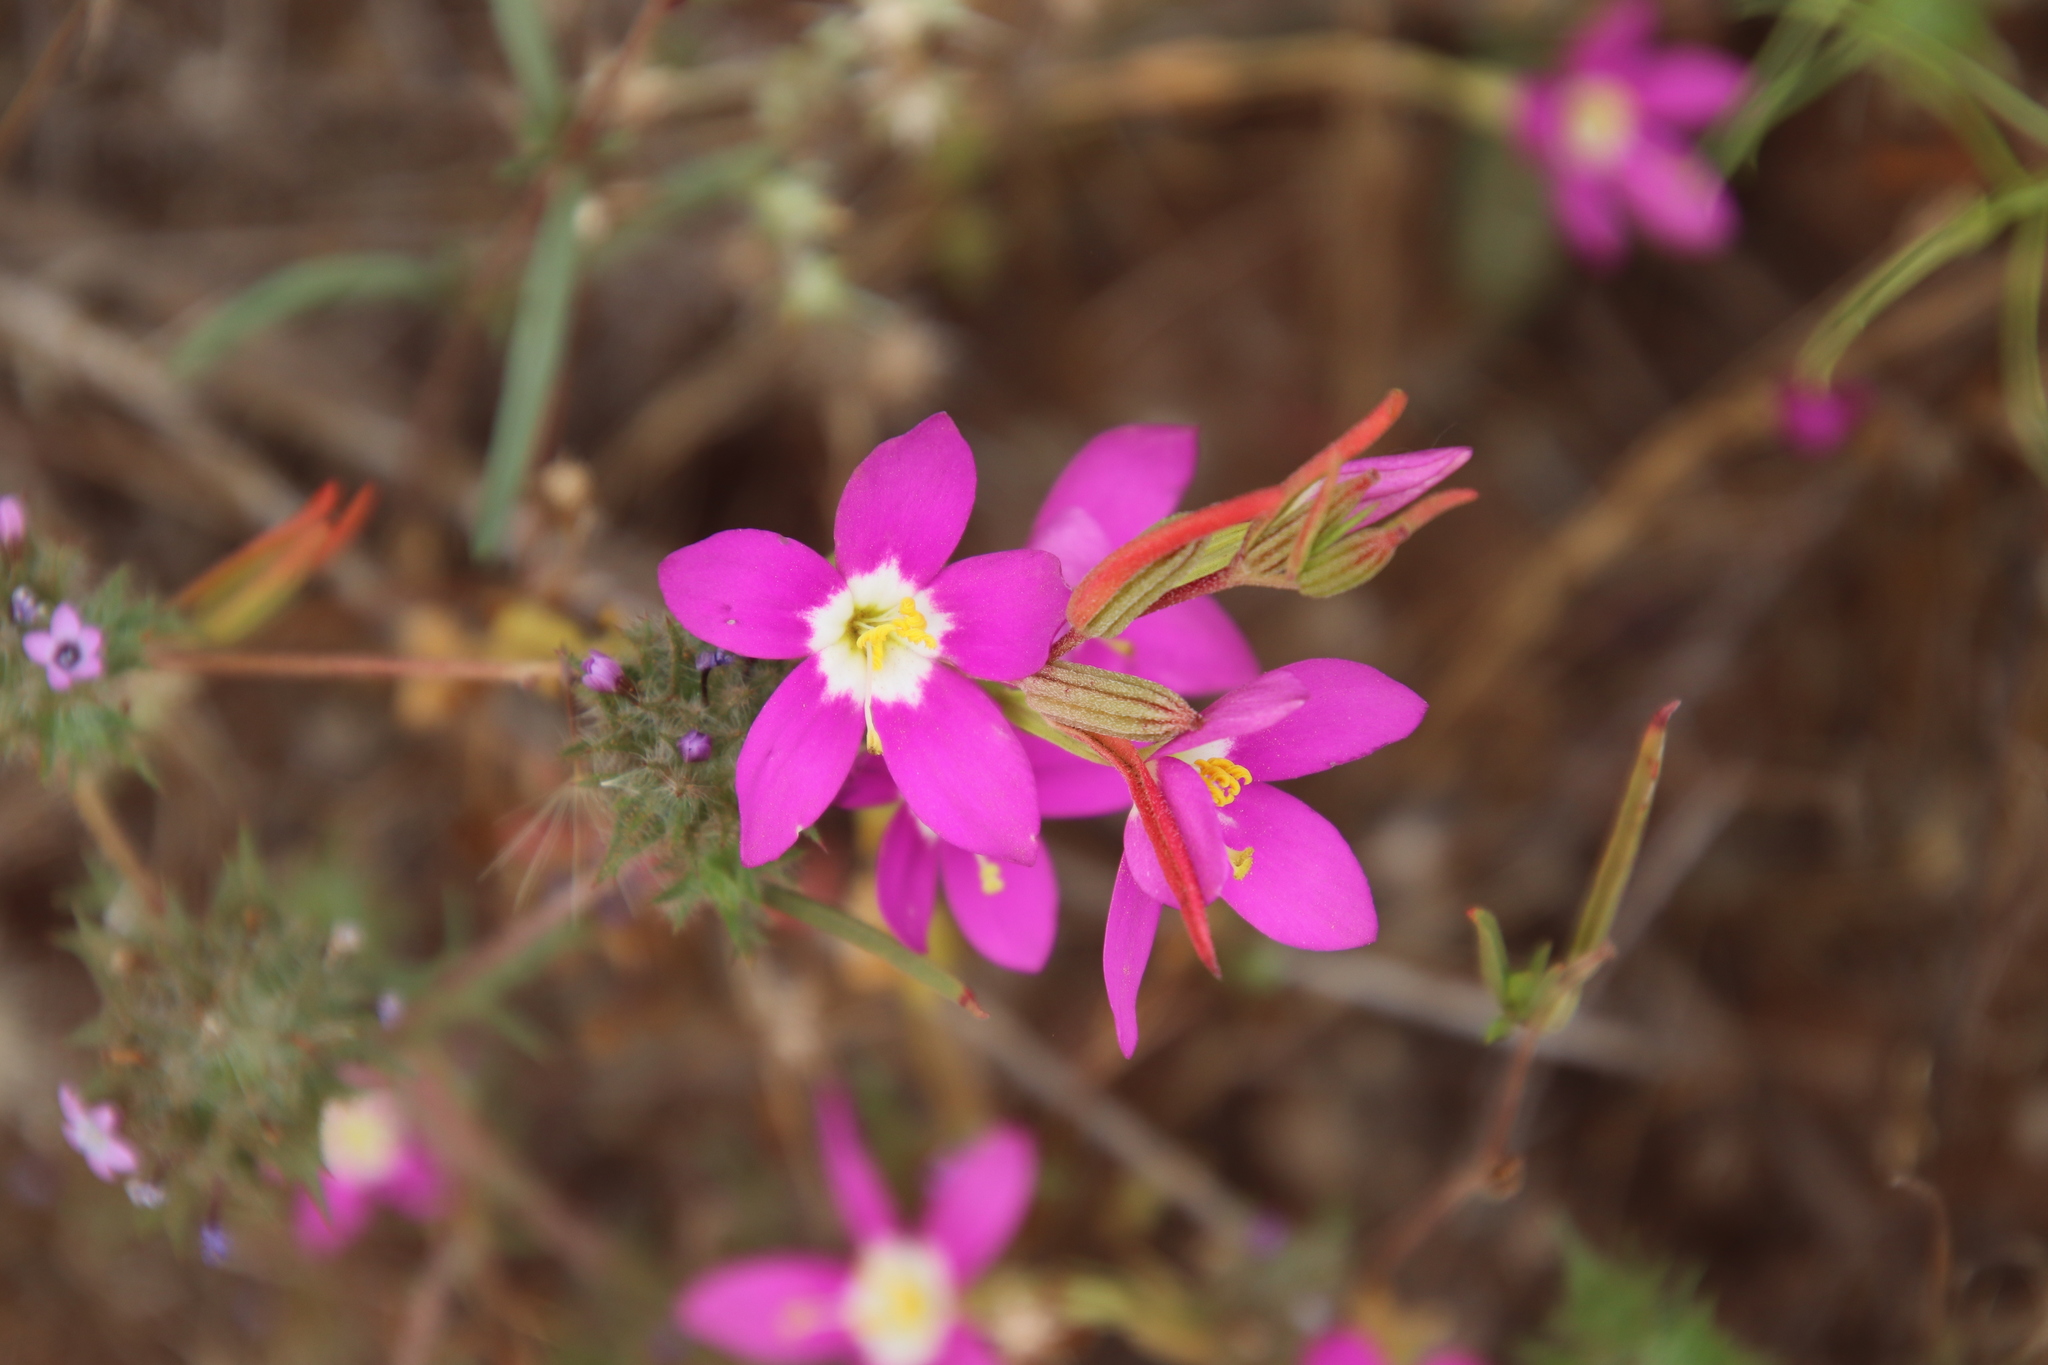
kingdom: Plantae
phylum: Tracheophyta
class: Magnoliopsida
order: Gentianales
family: Gentianaceae
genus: Zeltnera
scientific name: Zeltnera venusta
